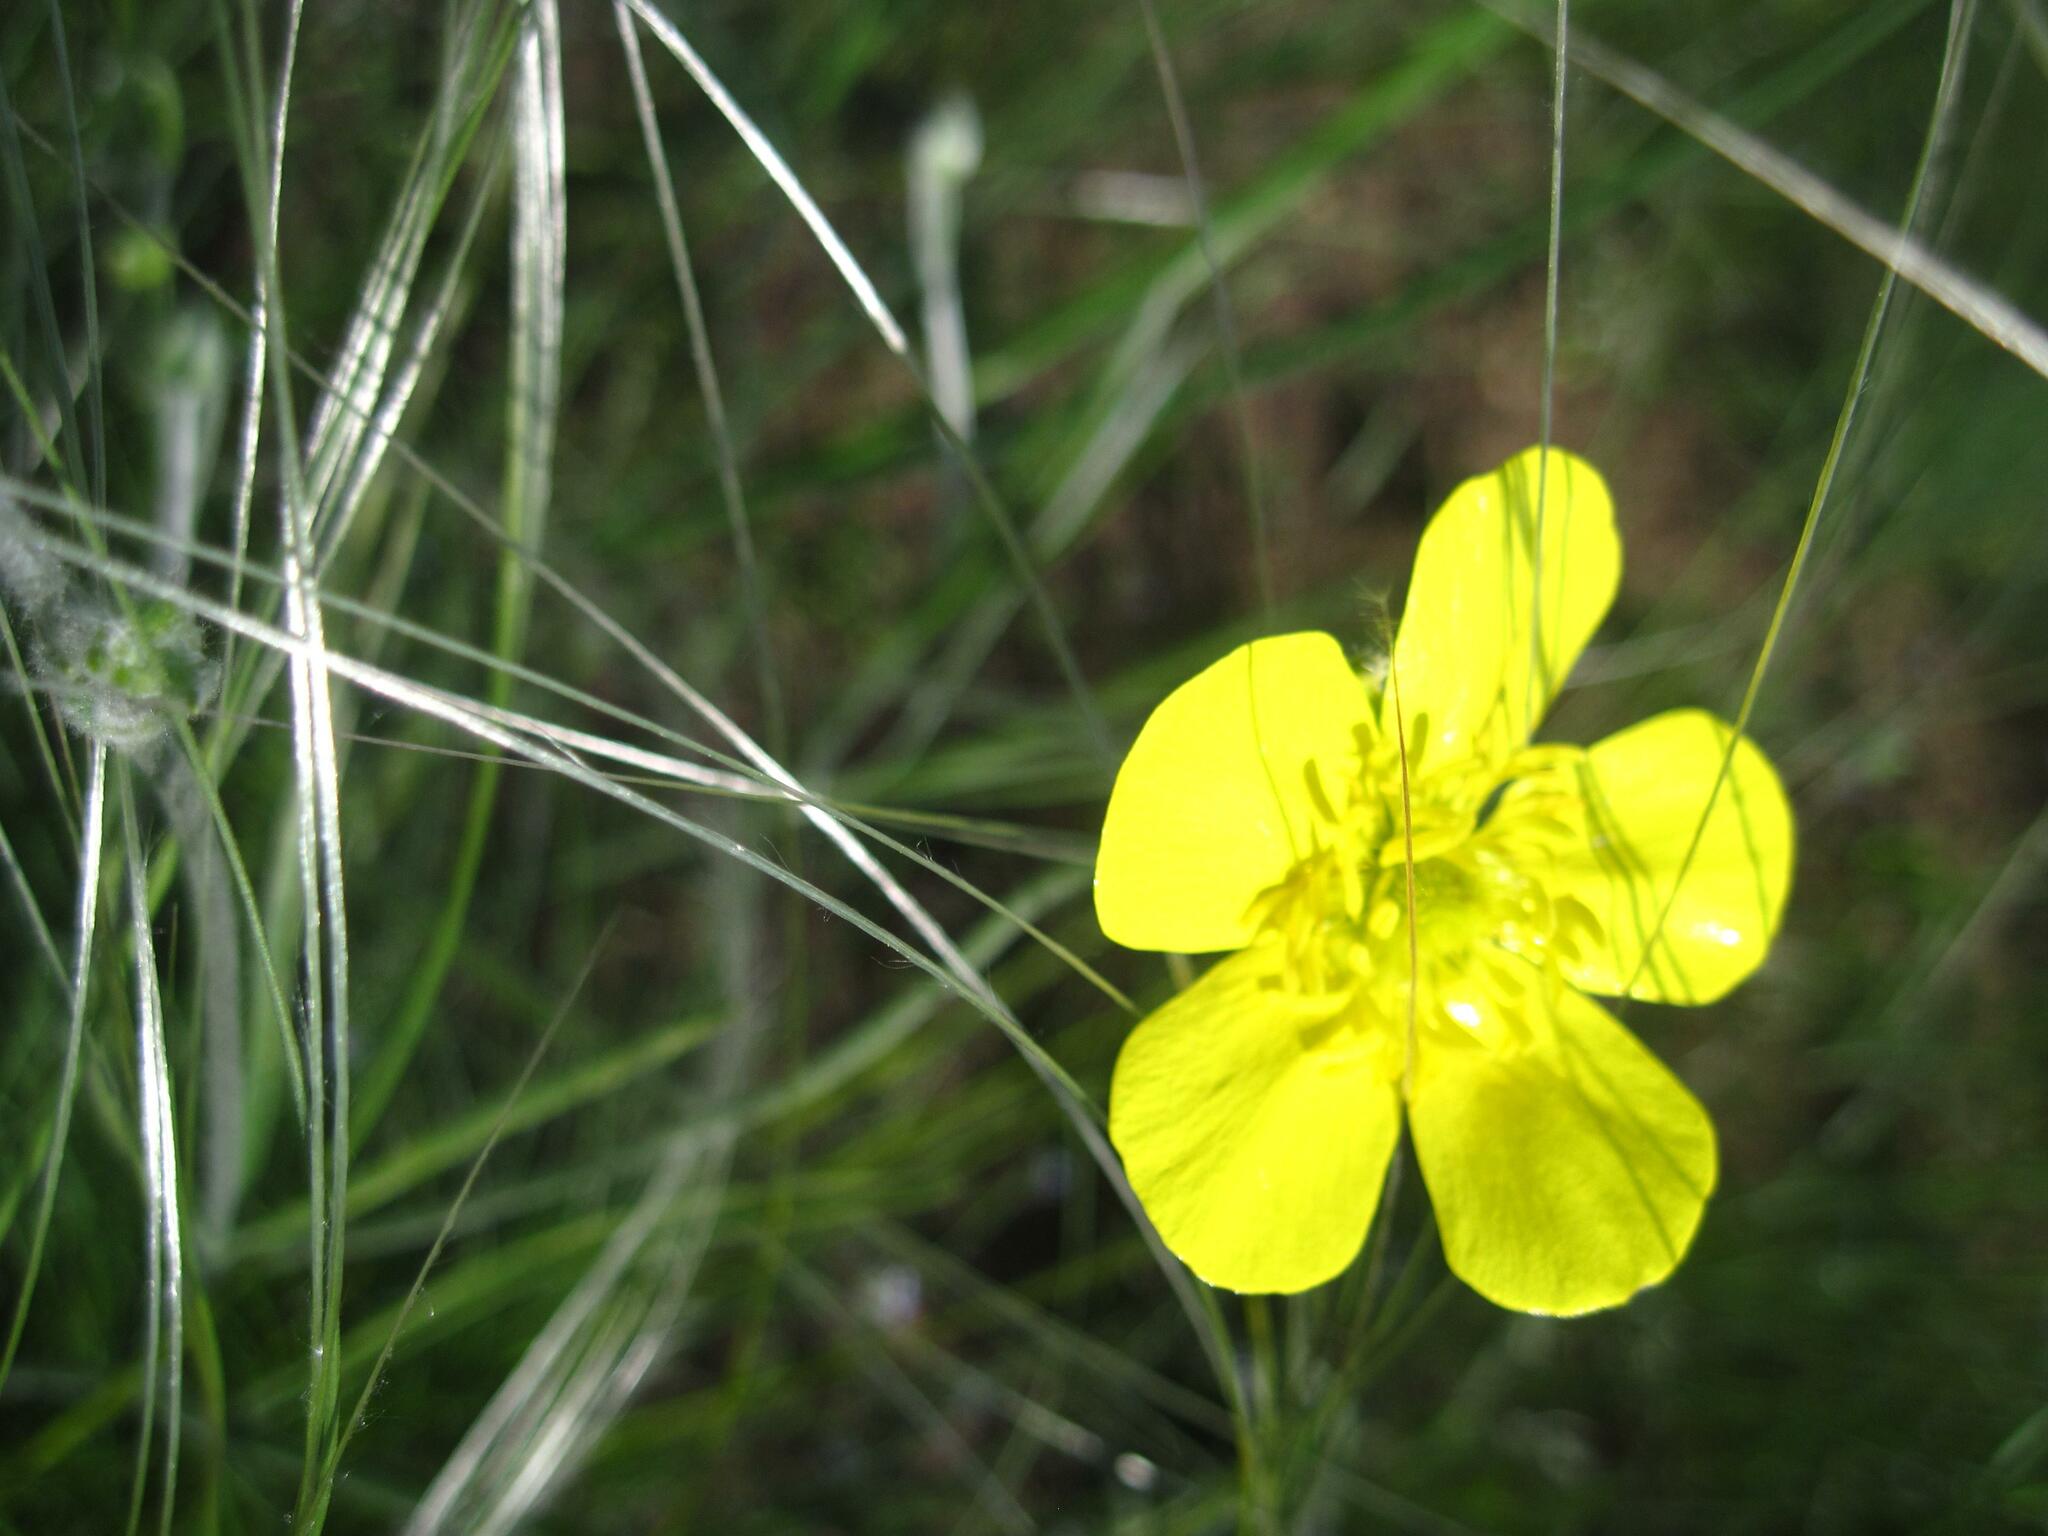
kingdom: Plantae
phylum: Tracheophyta
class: Magnoliopsida
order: Ranunculales
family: Ranunculaceae
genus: Ranunculus
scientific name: Ranunculus illyricus
